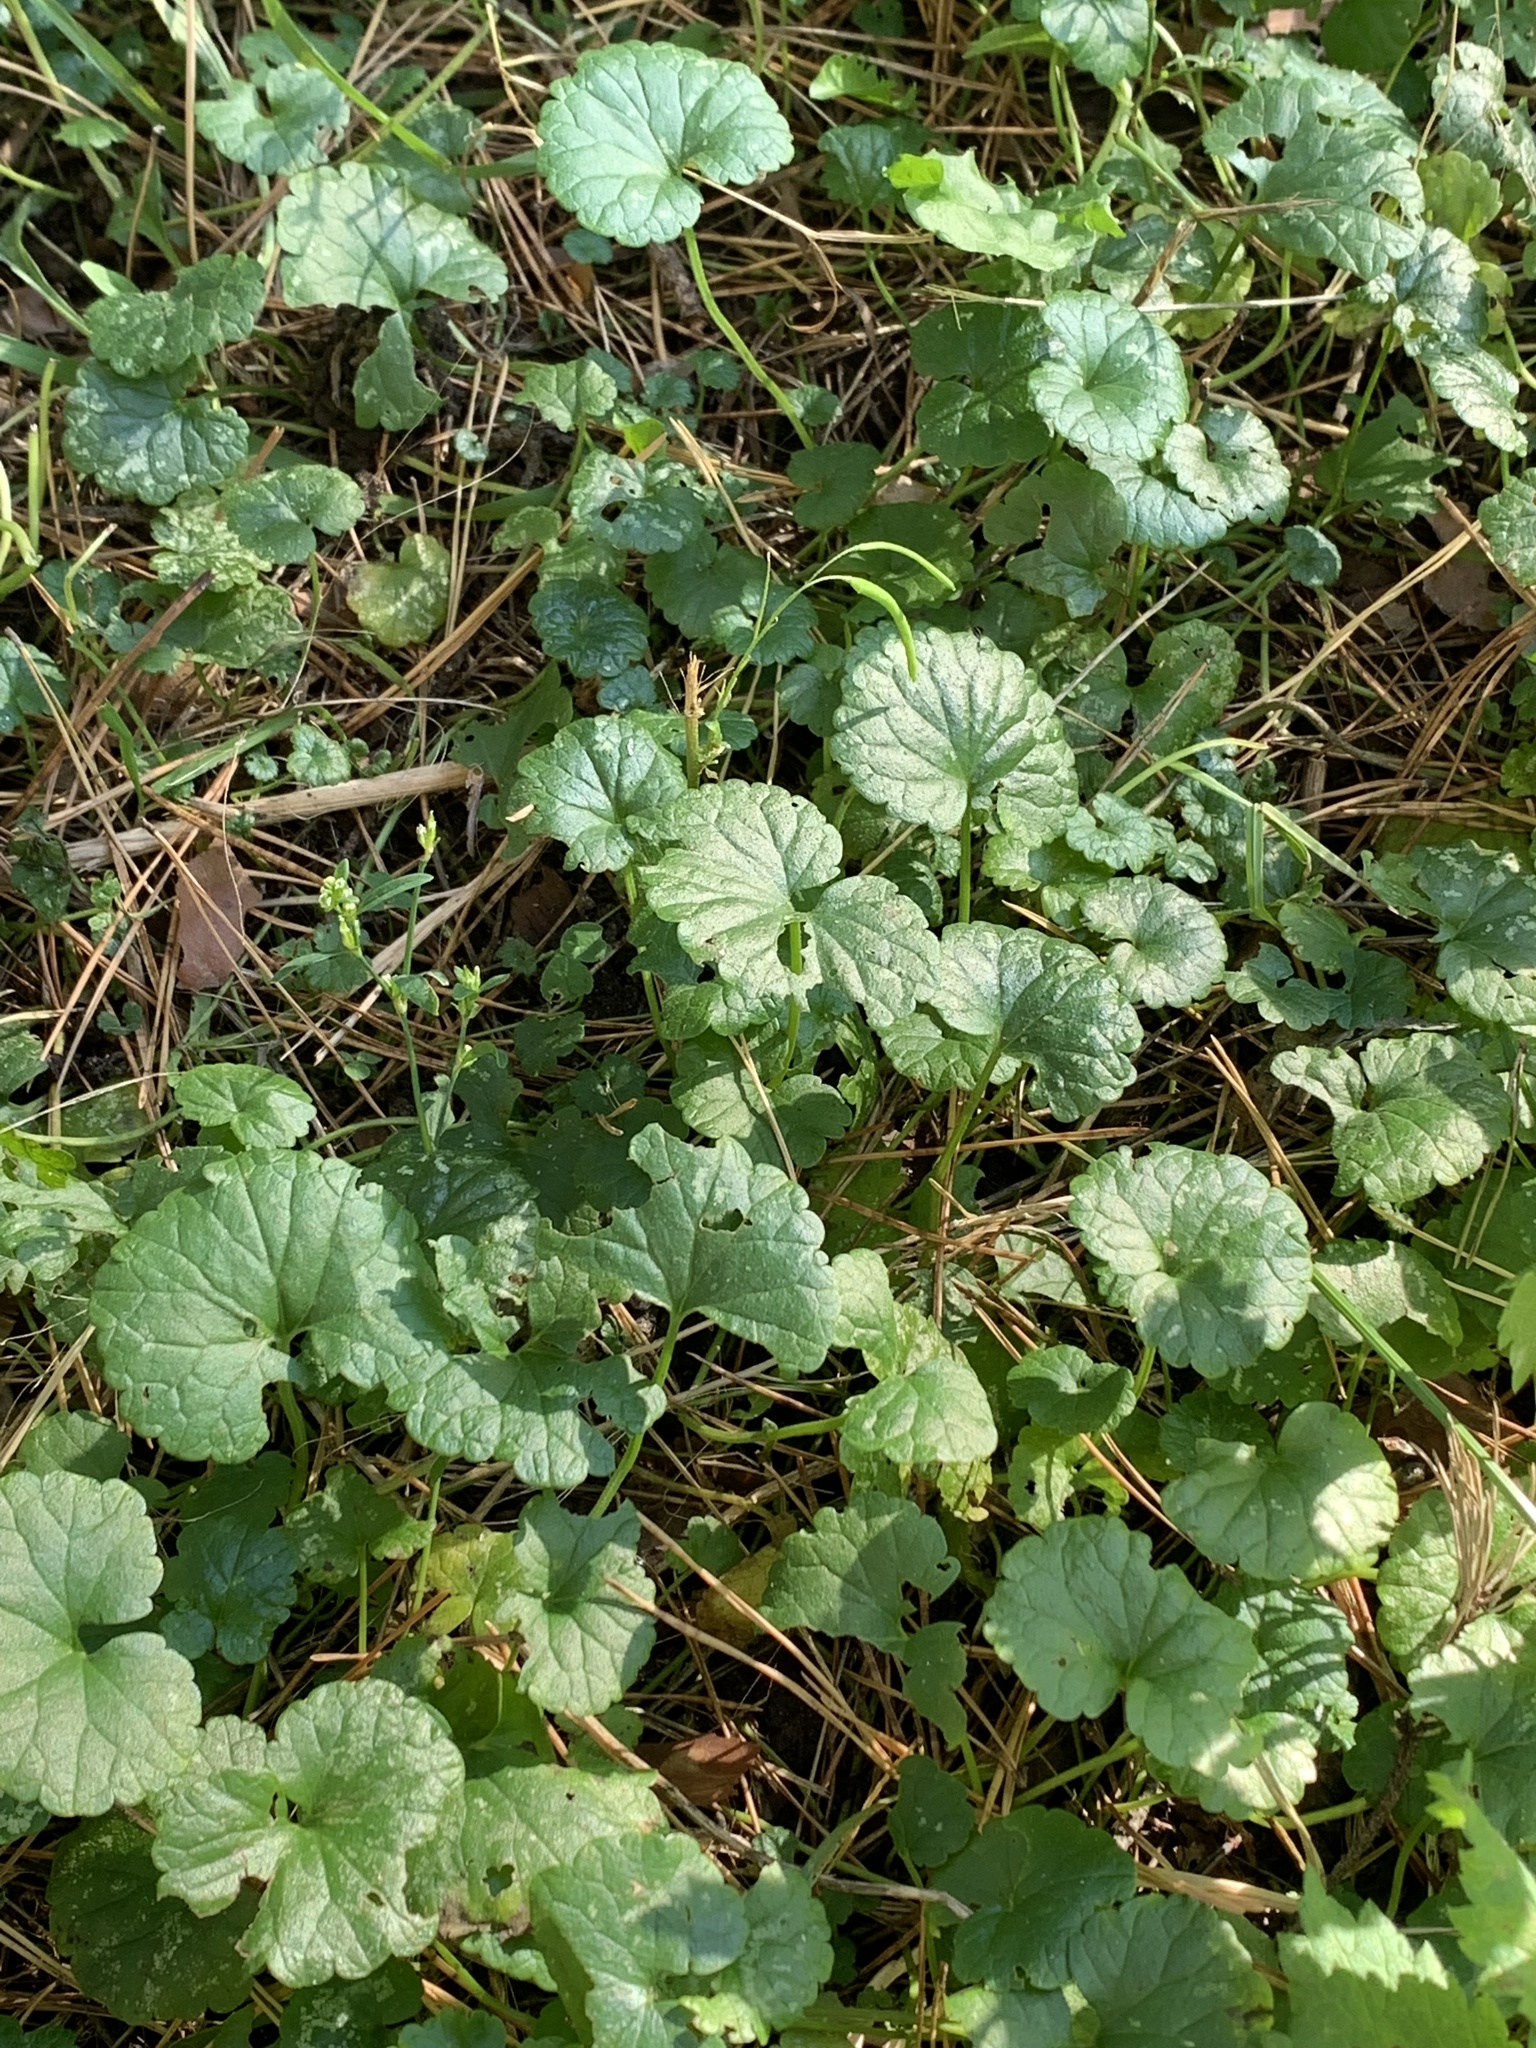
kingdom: Plantae
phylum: Tracheophyta
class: Magnoliopsida
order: Lamiales
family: Lamiaceae
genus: Glechoma
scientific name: Glechoma hederacea
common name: Ground ivy
